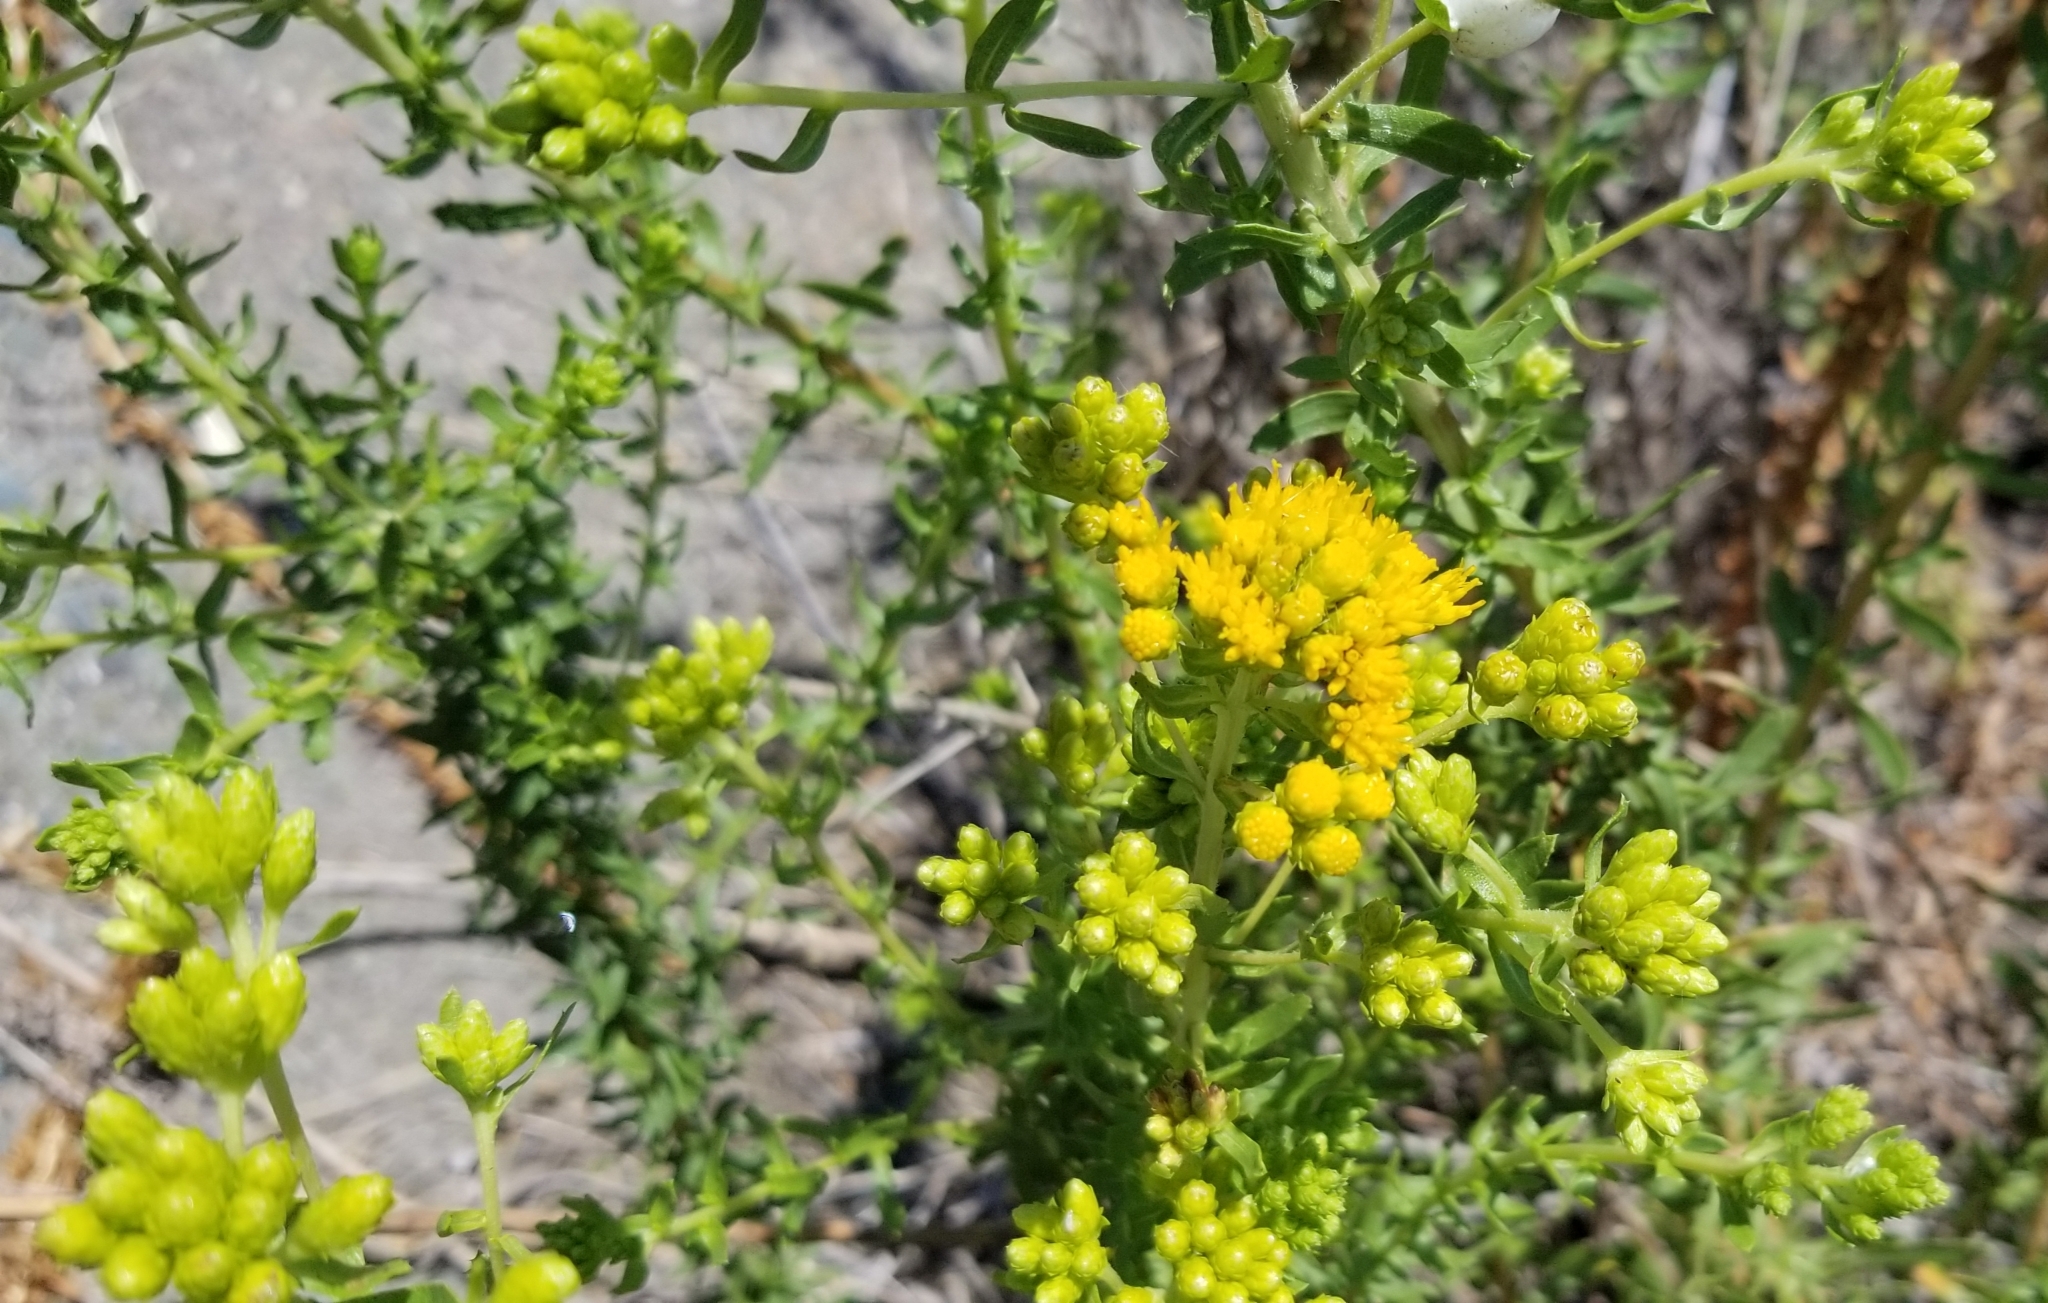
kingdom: Plantae
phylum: Tracheophyta
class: Magnoliopsida
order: Asterales
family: Asteraceae
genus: Isocoma
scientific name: Isocoma menziesii
